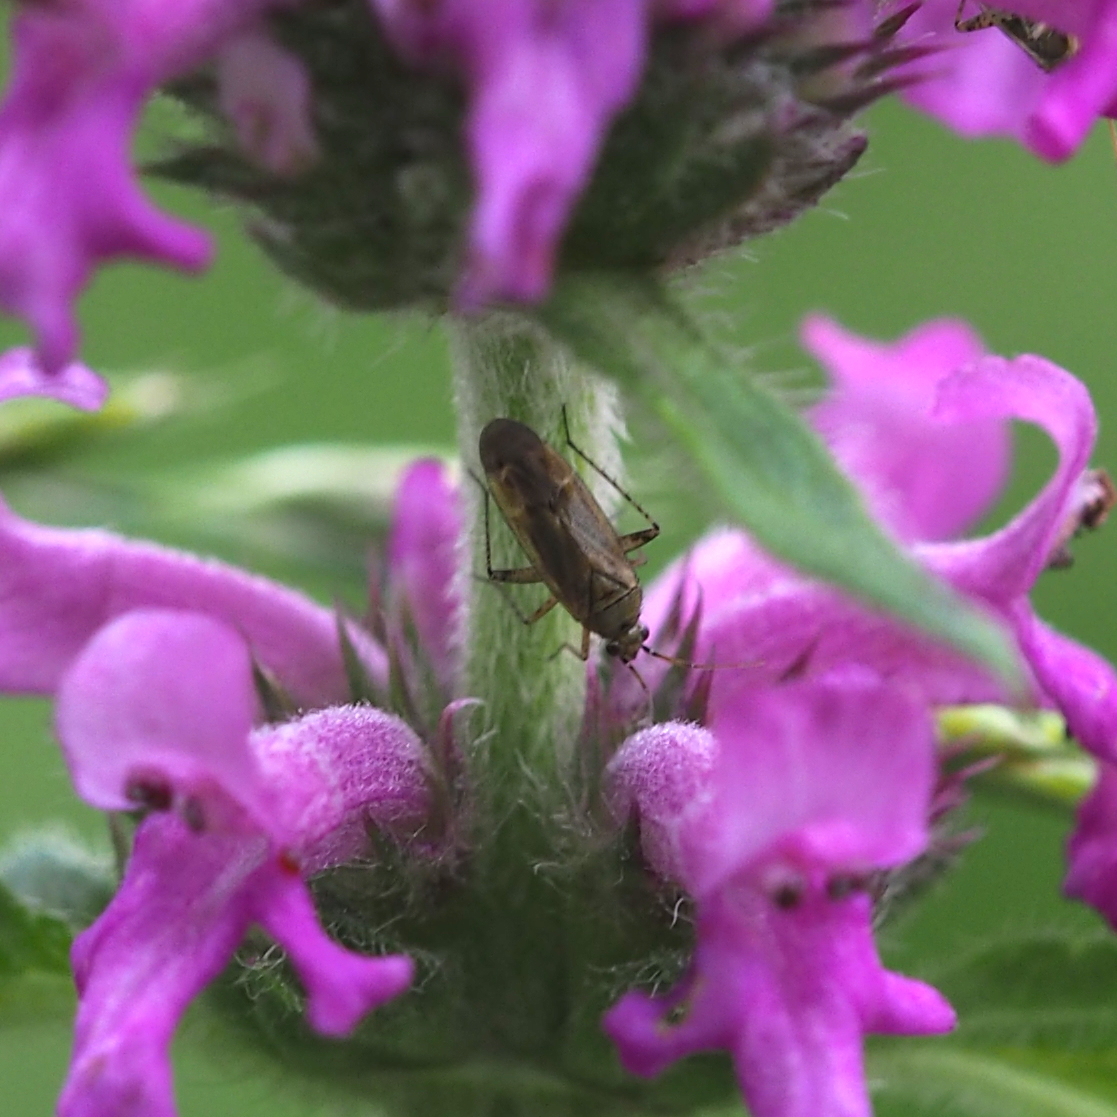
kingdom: Animalia
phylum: Arthropoda
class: Insecta
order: Hemiptera
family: Miridae
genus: Plagiognathus
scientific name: Plagiognathus arbustorum
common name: Plant bug
